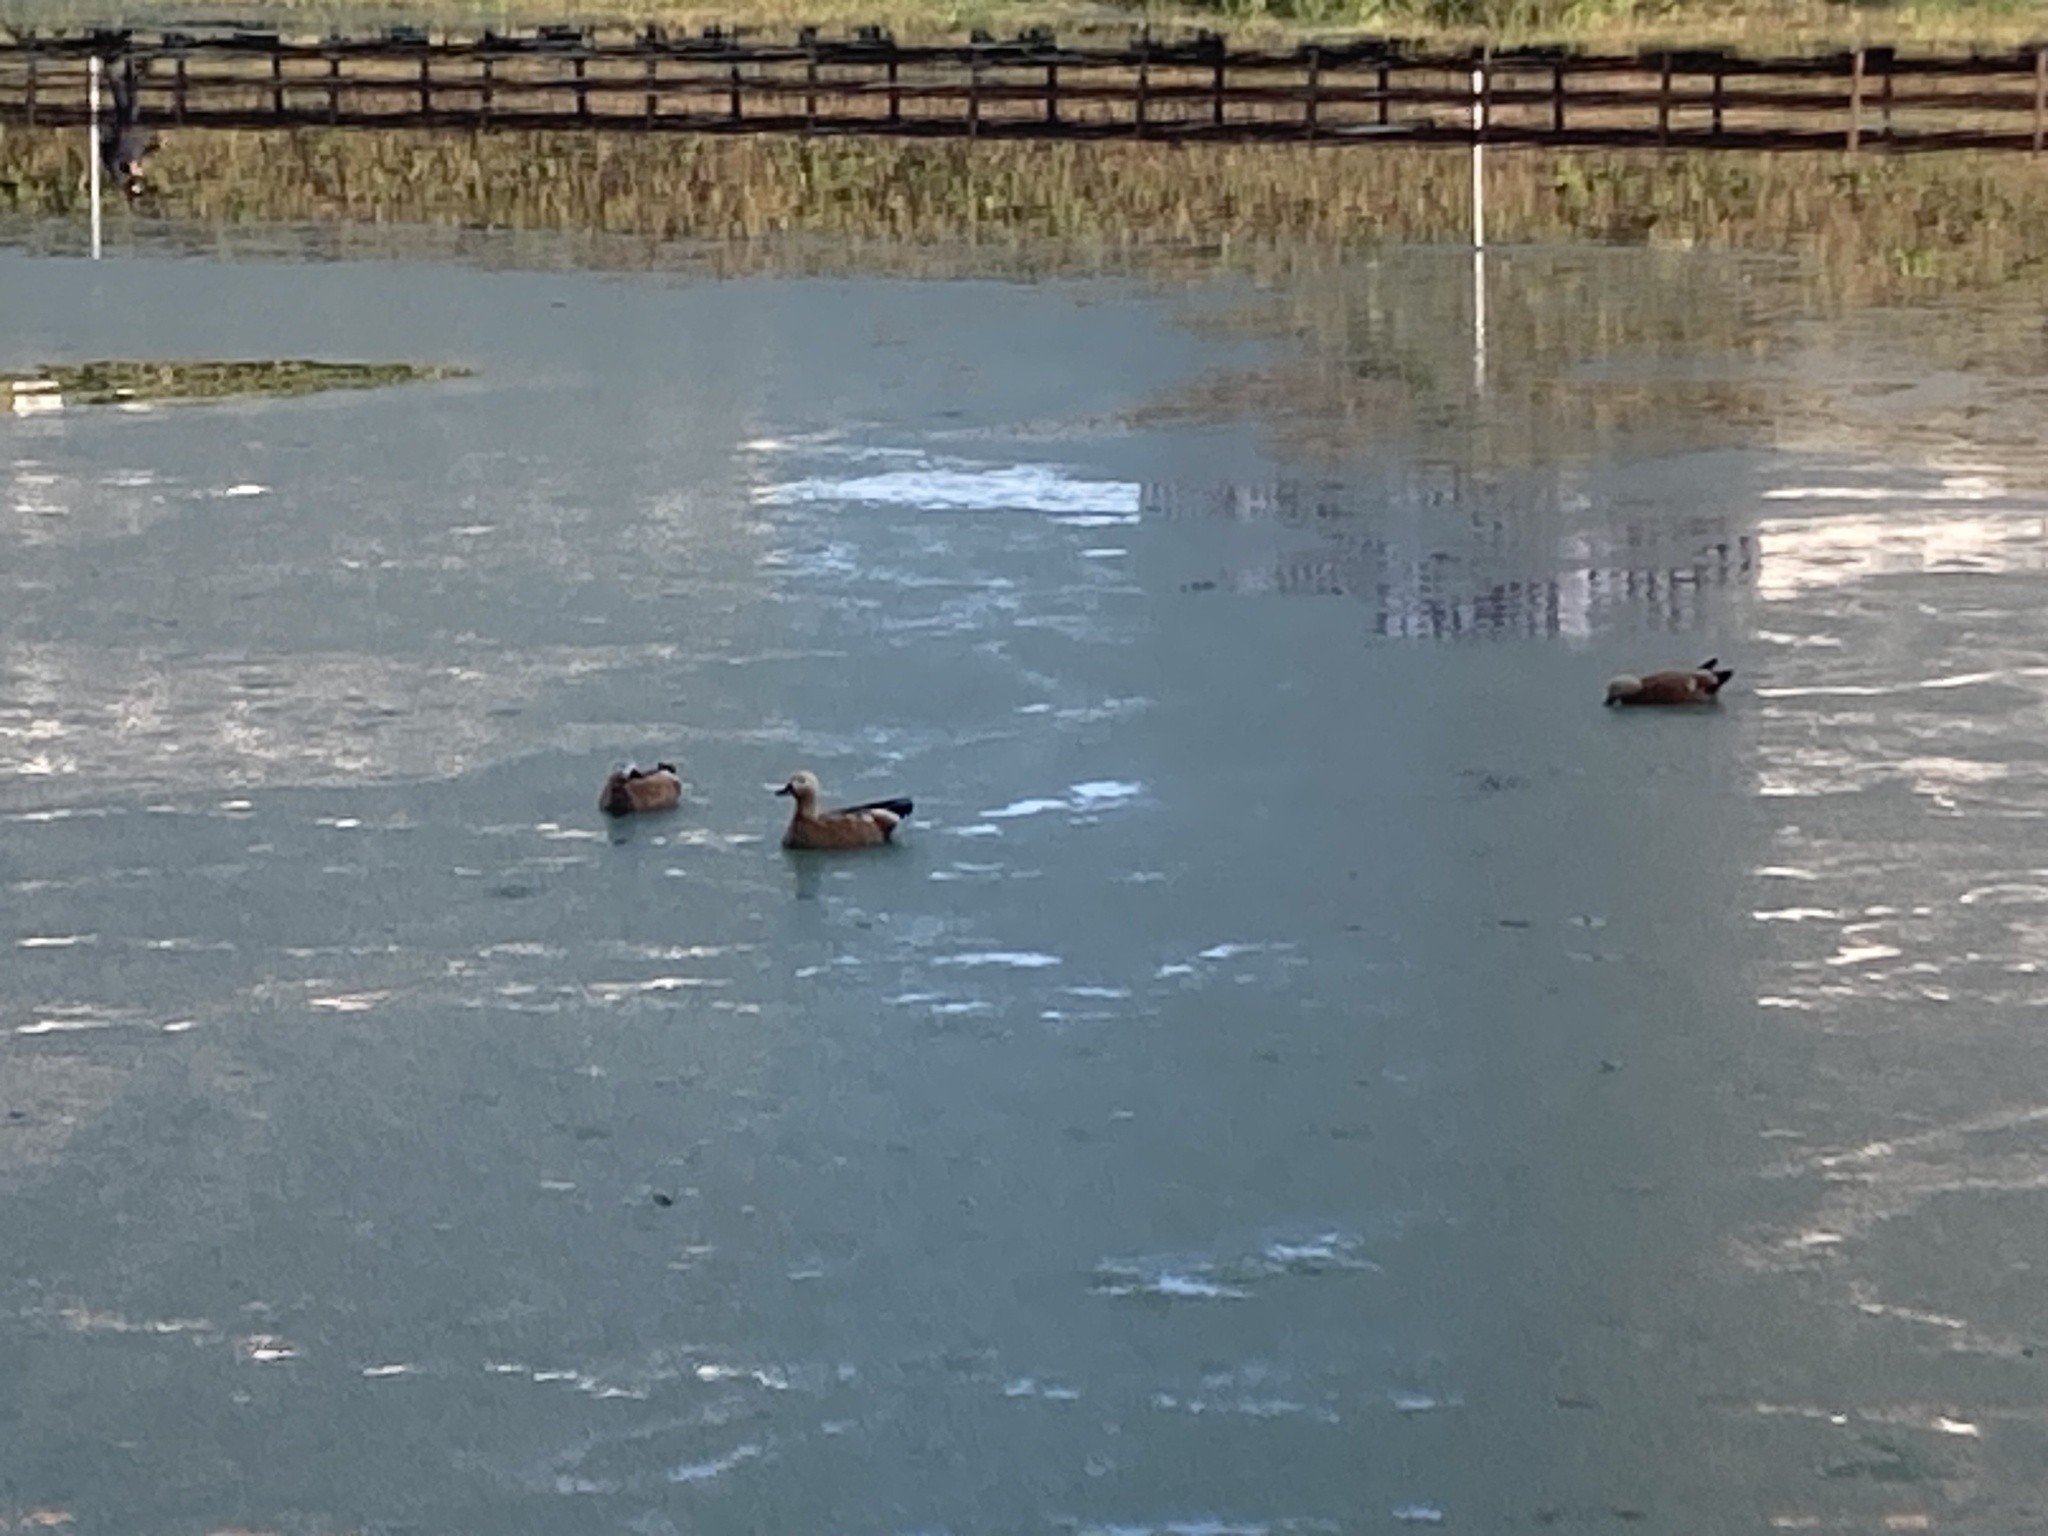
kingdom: Animalia
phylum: Chordata
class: Aves
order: Anseriformes
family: Anatidae
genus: Tadorna
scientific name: Tadorna ferruginea
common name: Ruddy shelduck
